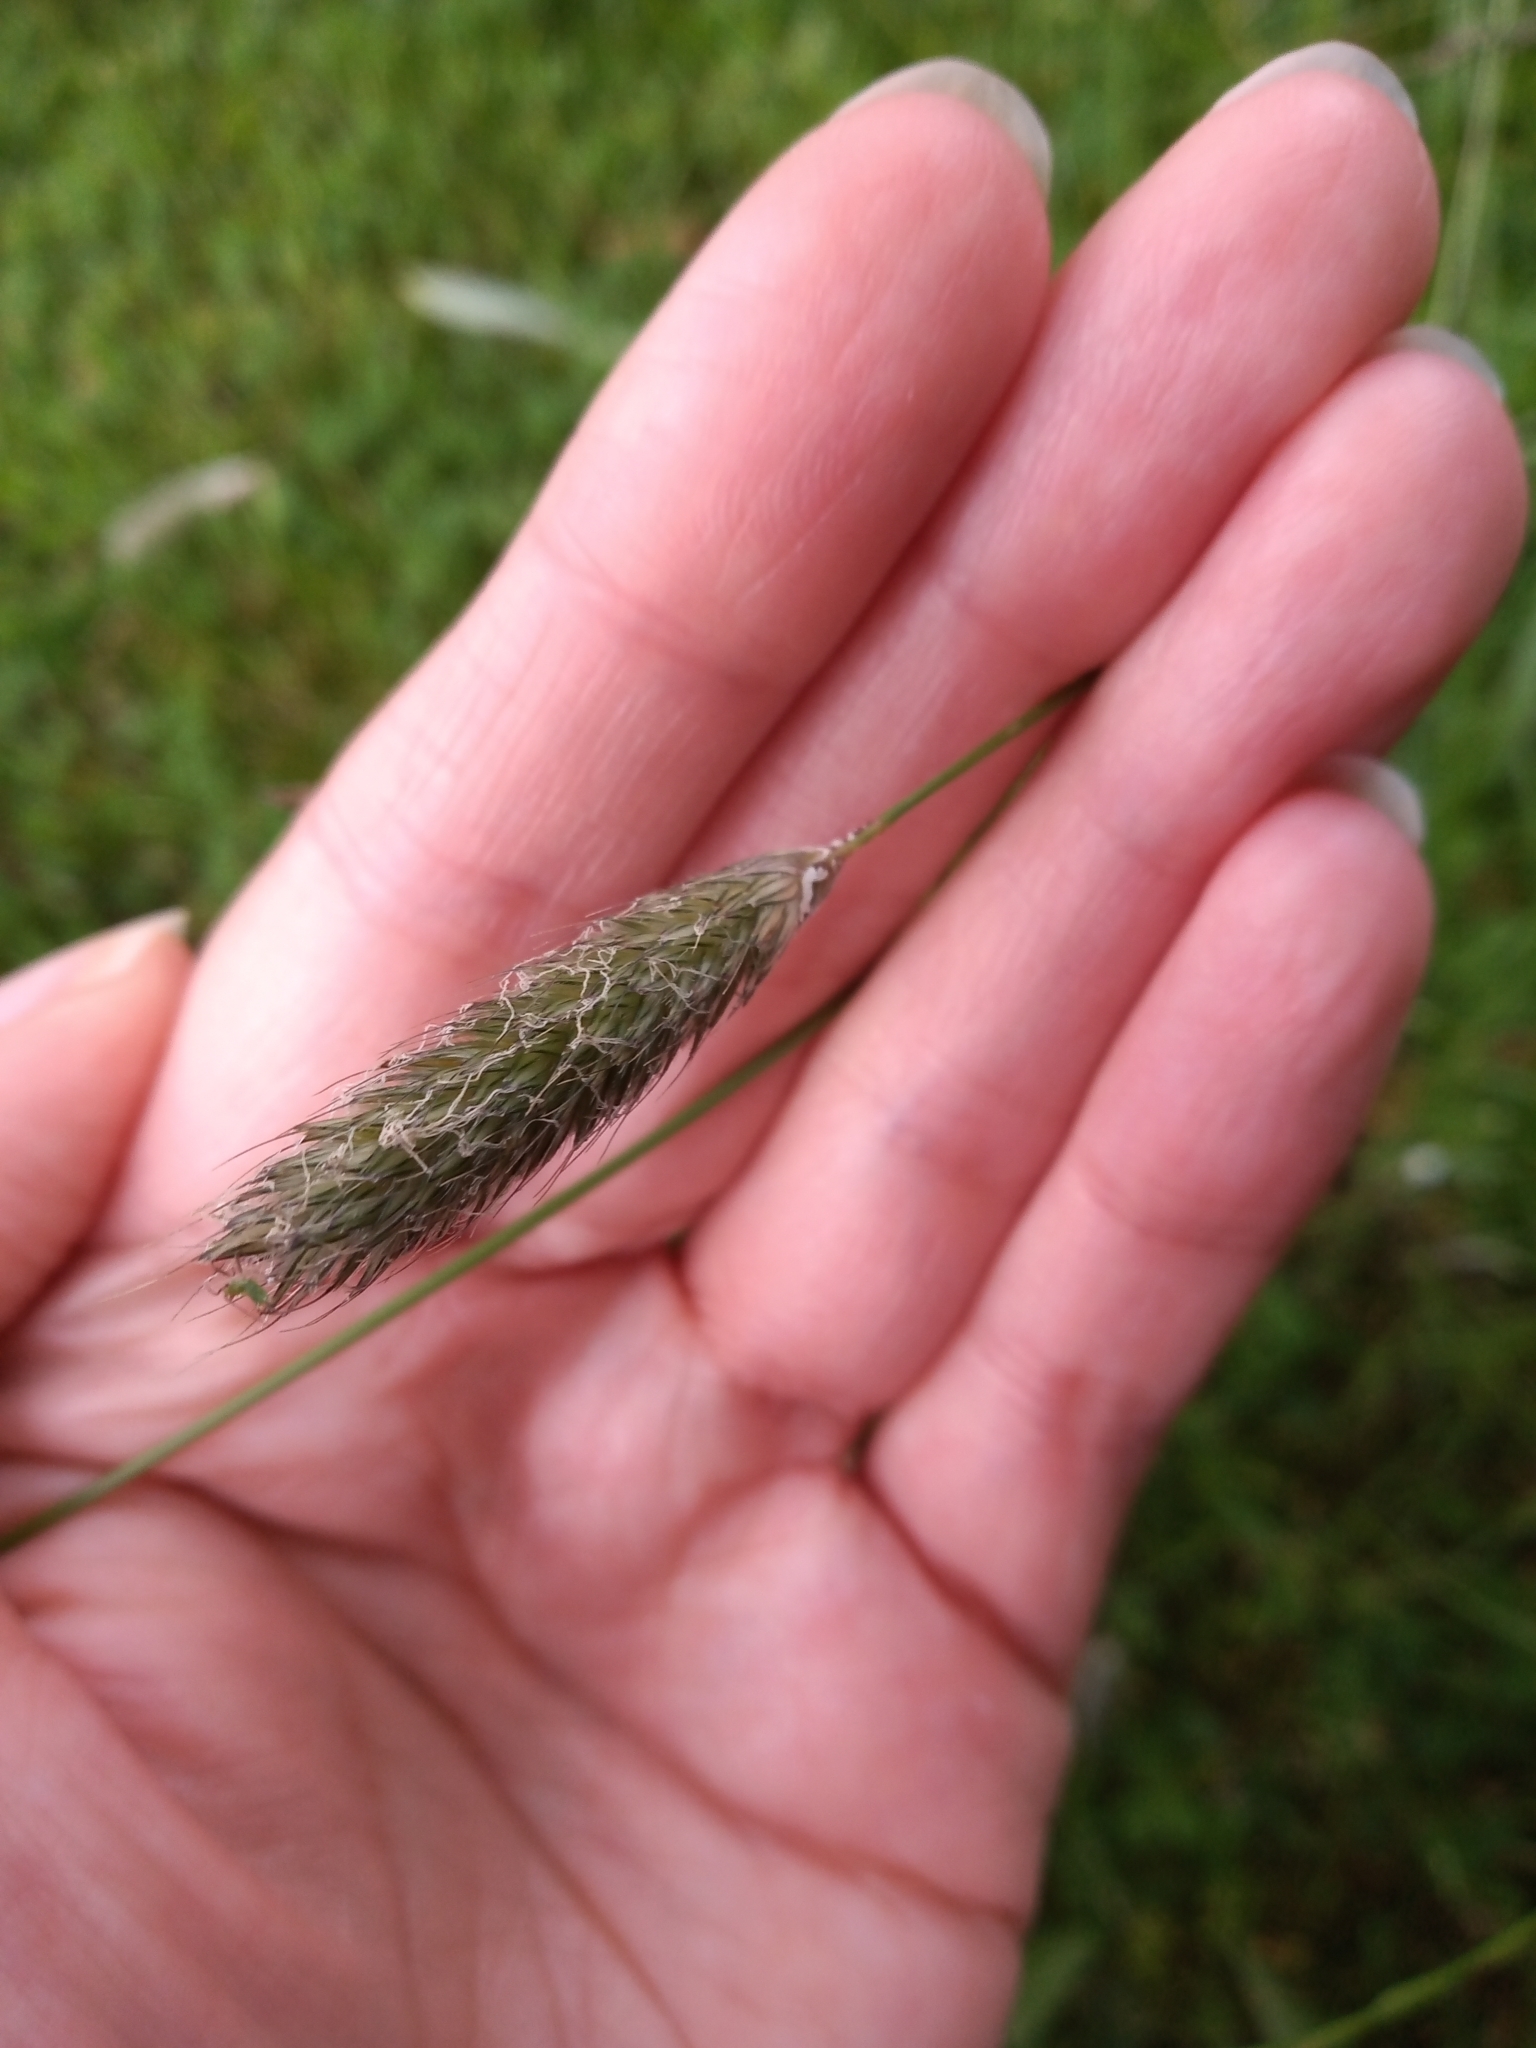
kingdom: Plantae
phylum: Tracheophyta
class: Liliopsida
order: Poales
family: Poaceae
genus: Alopecurus
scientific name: Alopecurus pratensis
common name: Meadow foxtail
